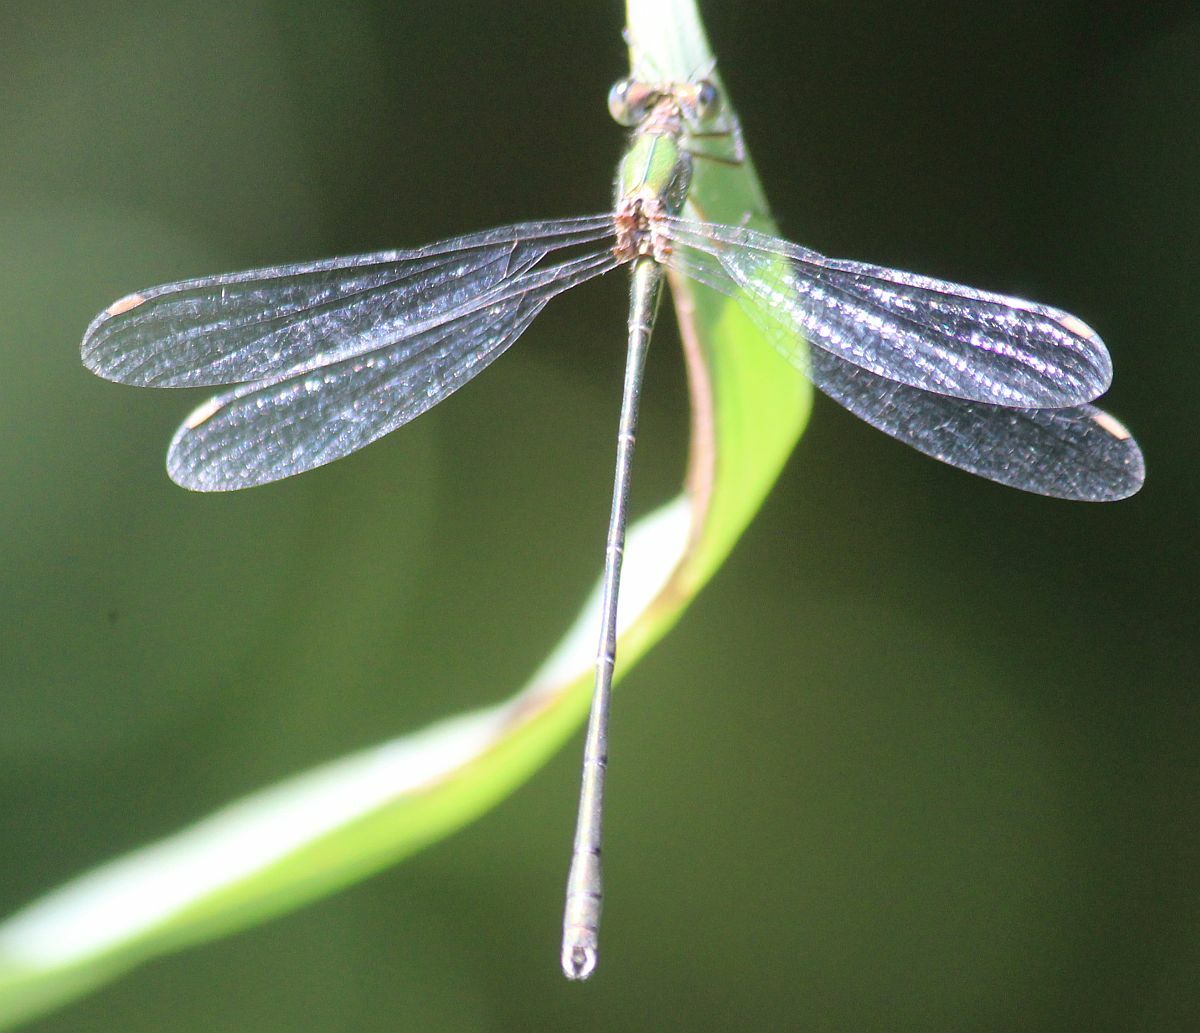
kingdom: Animalia
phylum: Arthropoda
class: Insecta
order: Odonata
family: Lestidae
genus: Chalcolestes
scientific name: Chalcolestes viridis
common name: Green emerald damselfly
